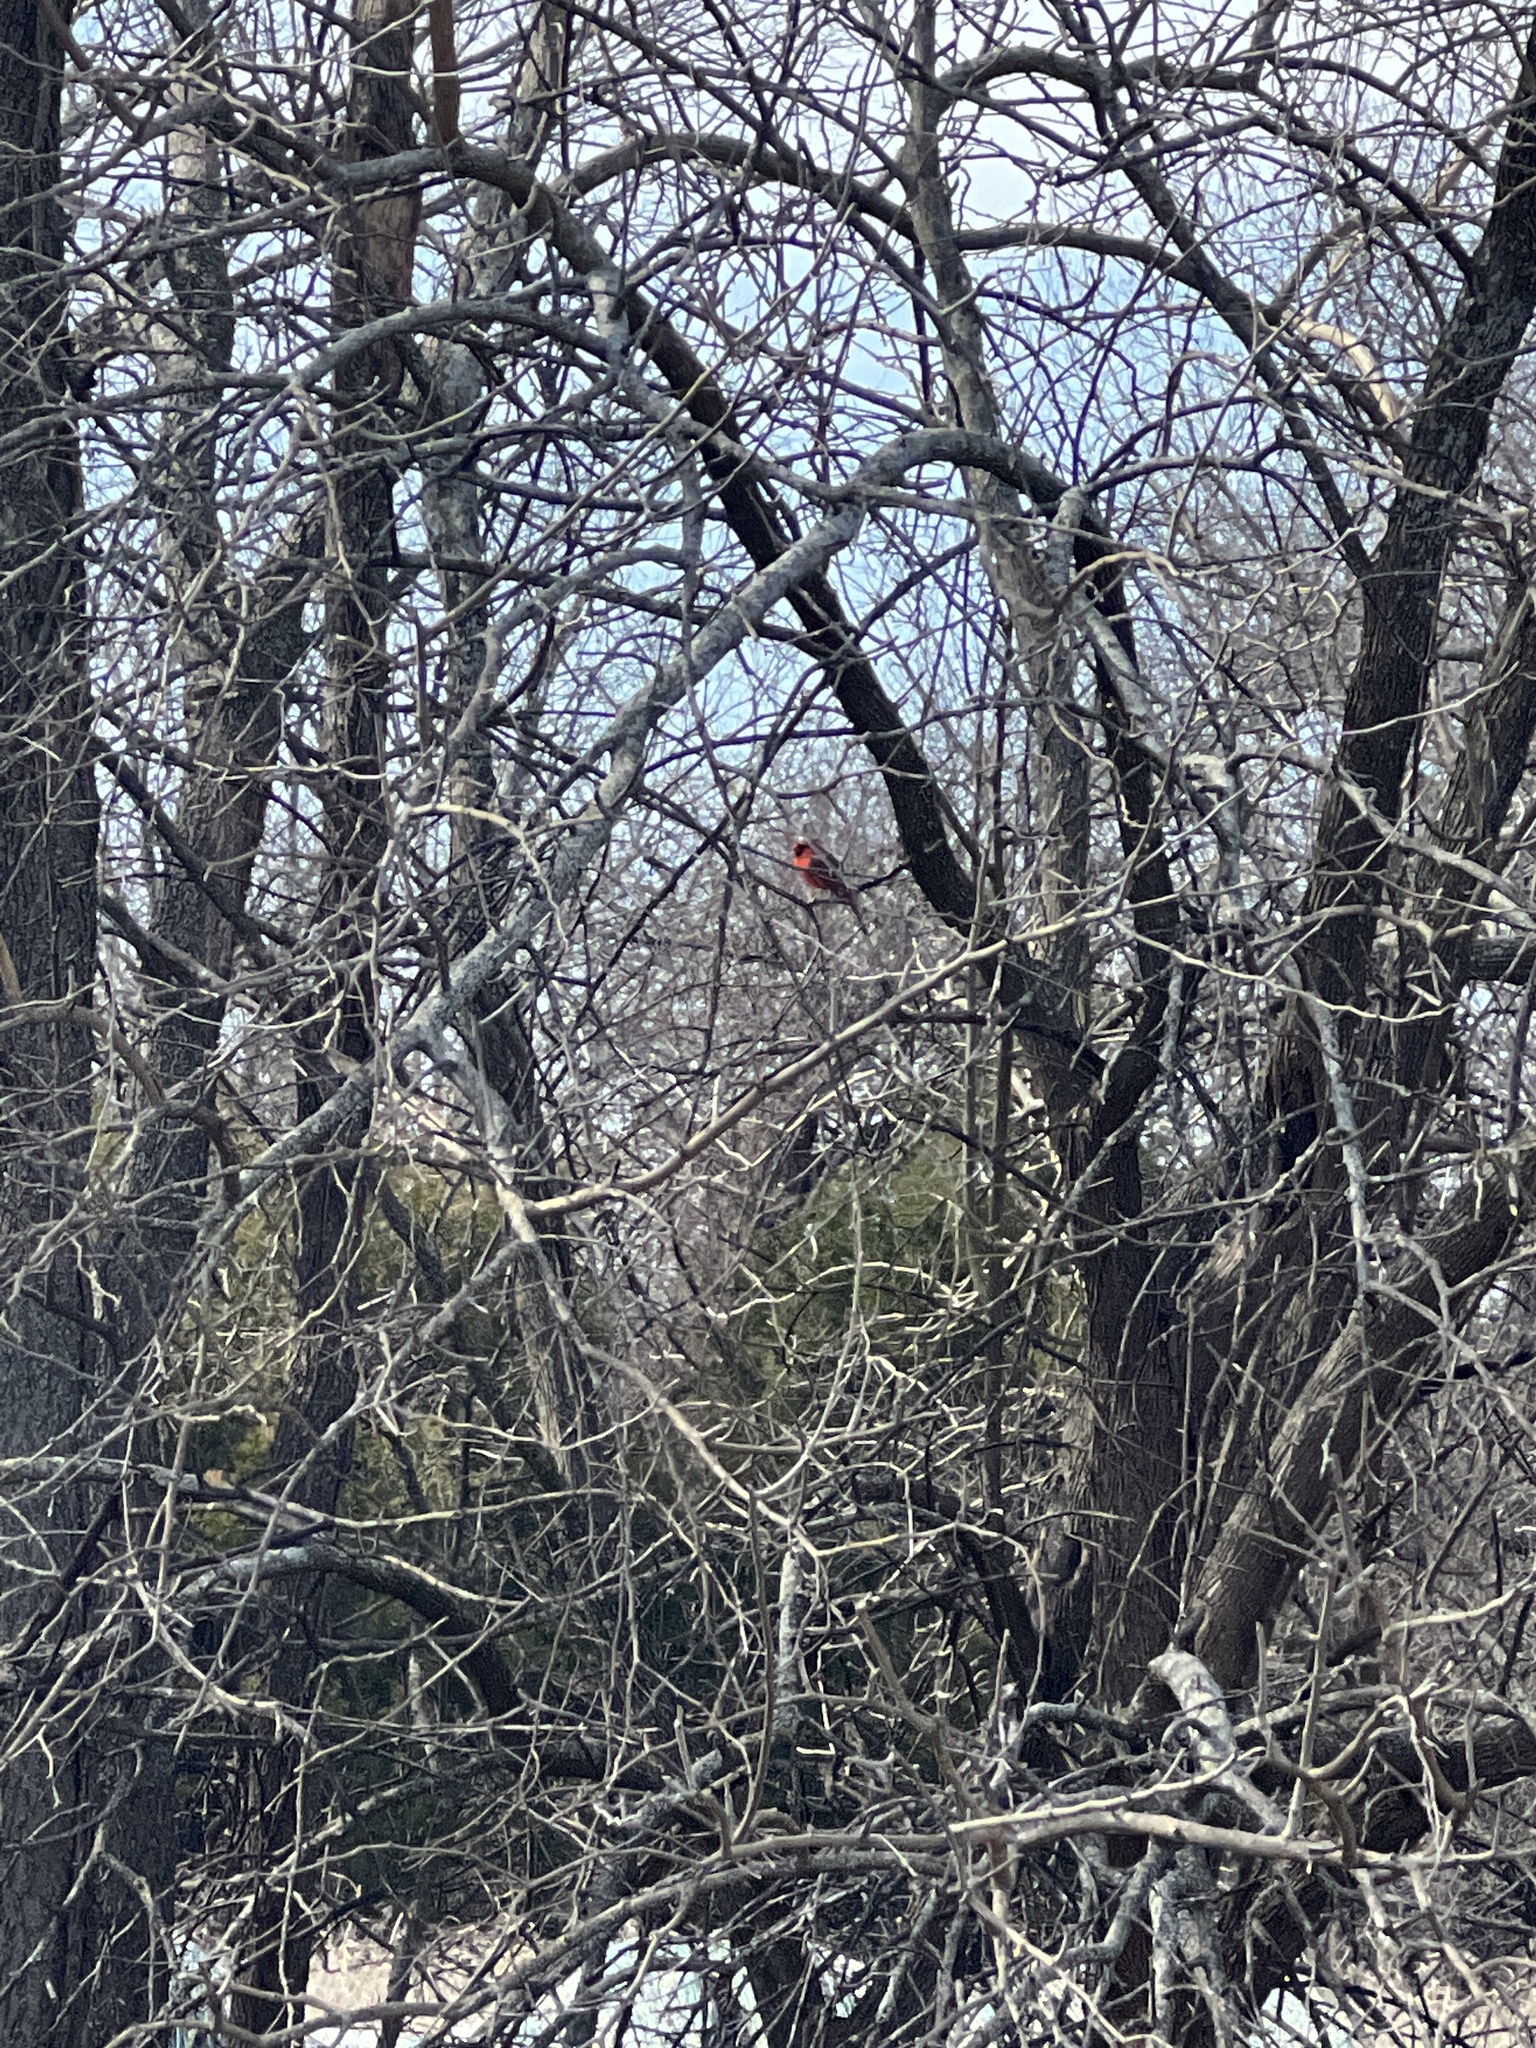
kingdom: Animalia
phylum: Chordata
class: Aves
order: Passeriformes
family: Cardinalidae
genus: Cardinalis
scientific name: Cardinalis cardinalis
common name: Northern cardinal
